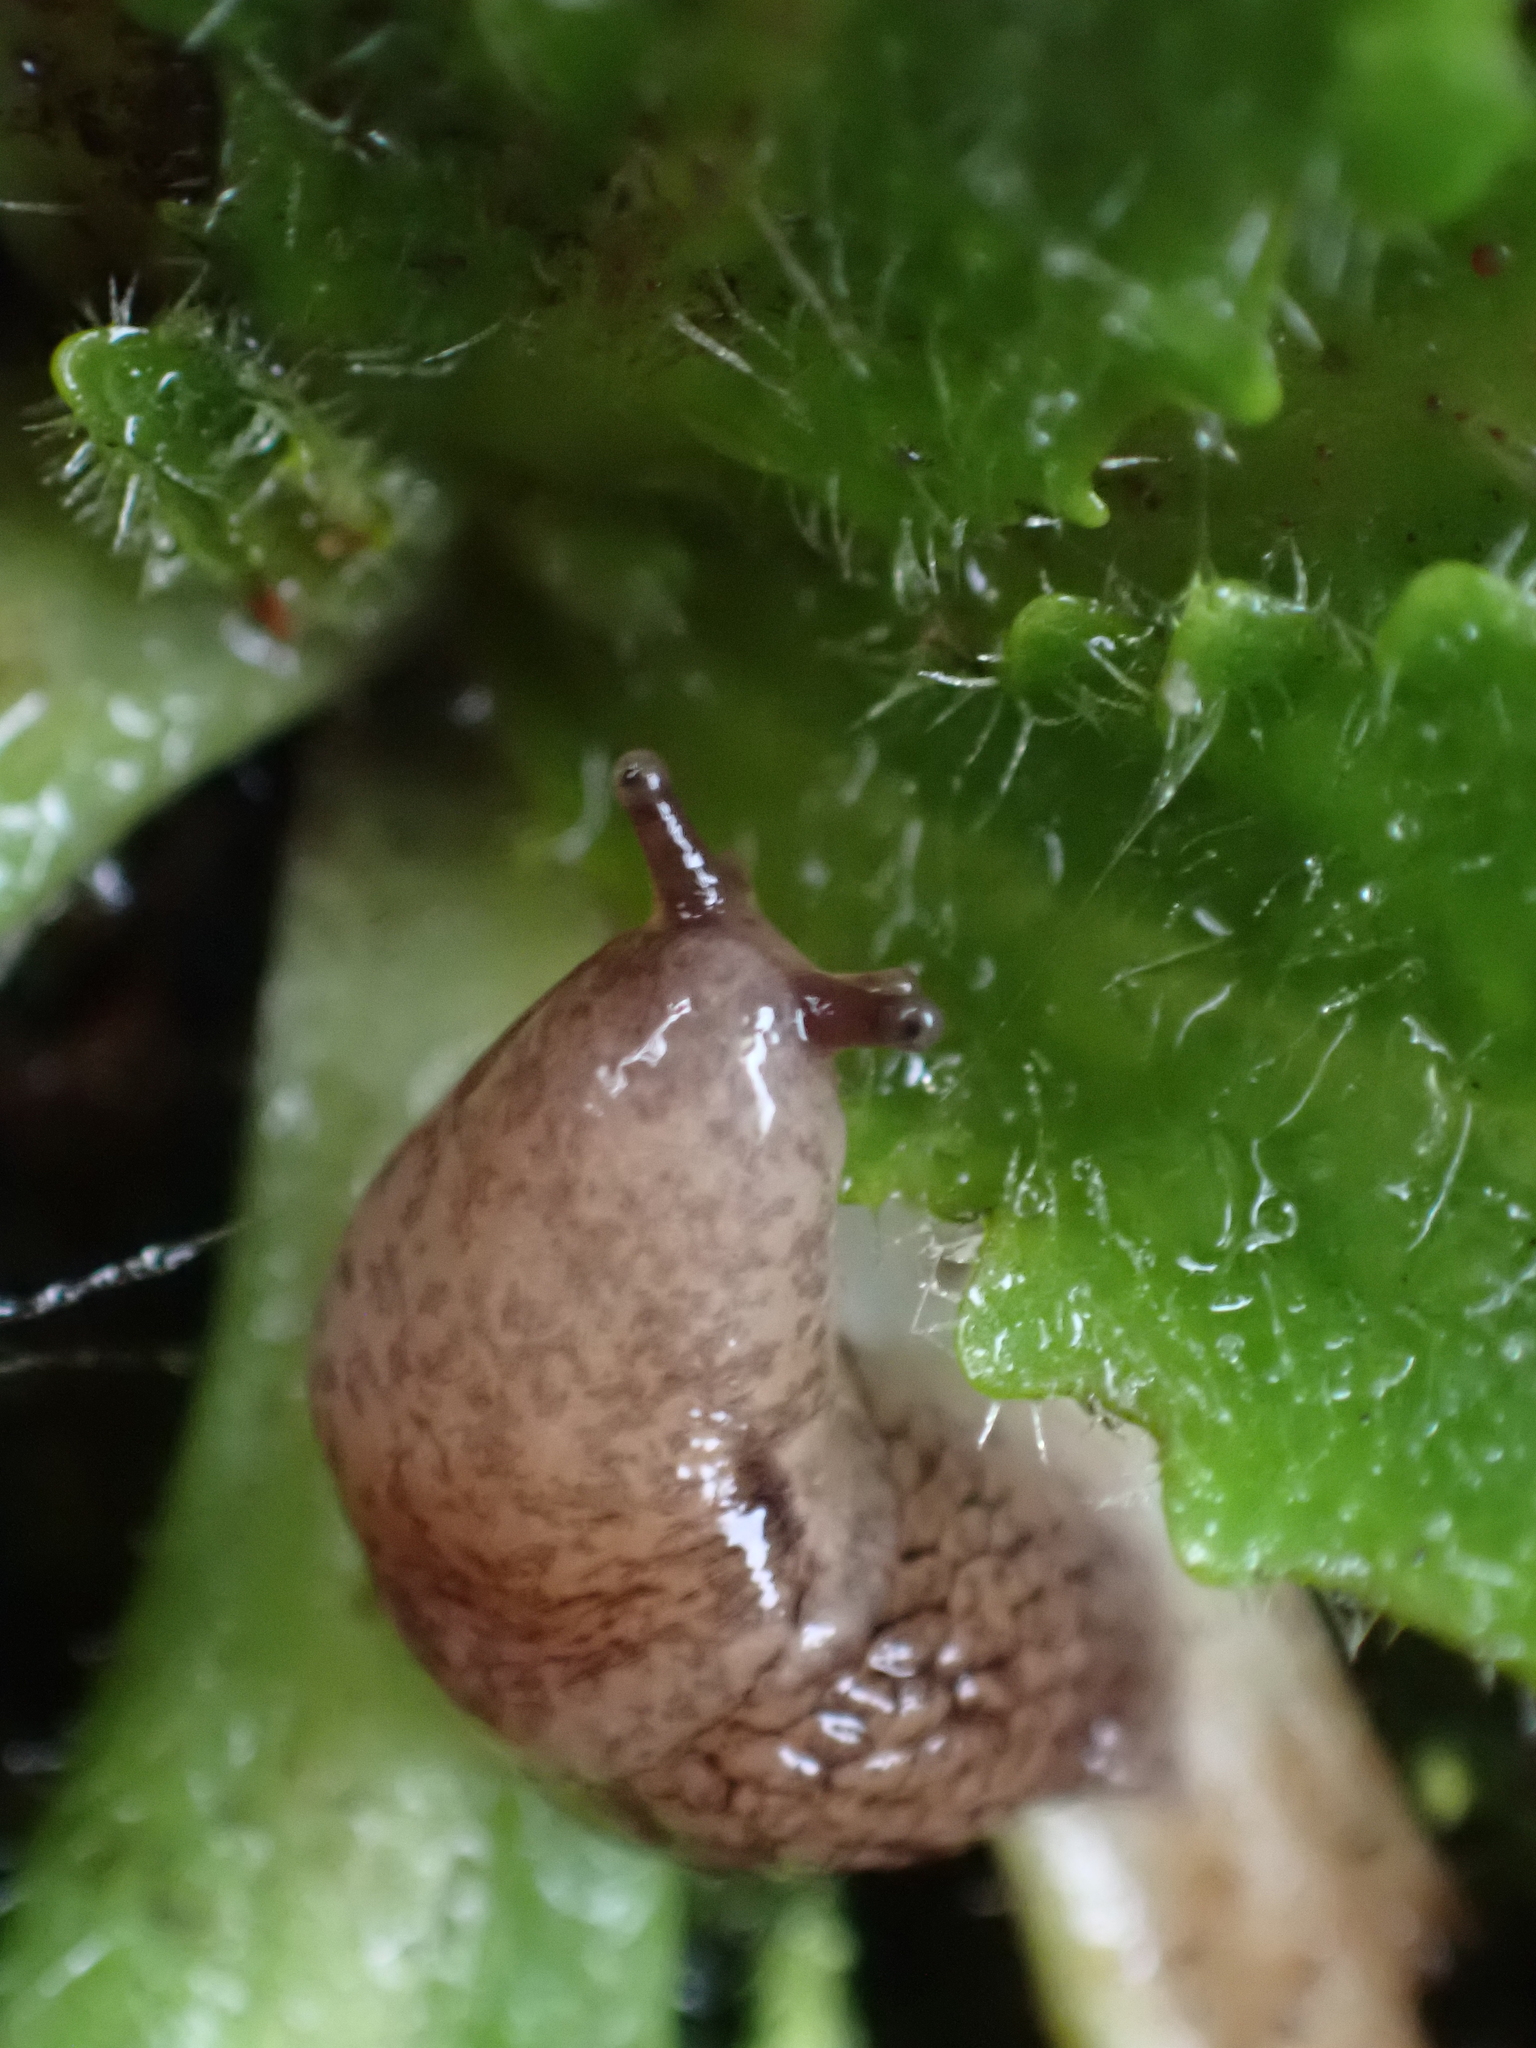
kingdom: Animalia
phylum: Mollusca
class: Gastropoda
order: Stylommatophora
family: Agriolimacidae
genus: Deroceras
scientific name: Deroceras reticulatum
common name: Gray field slug
